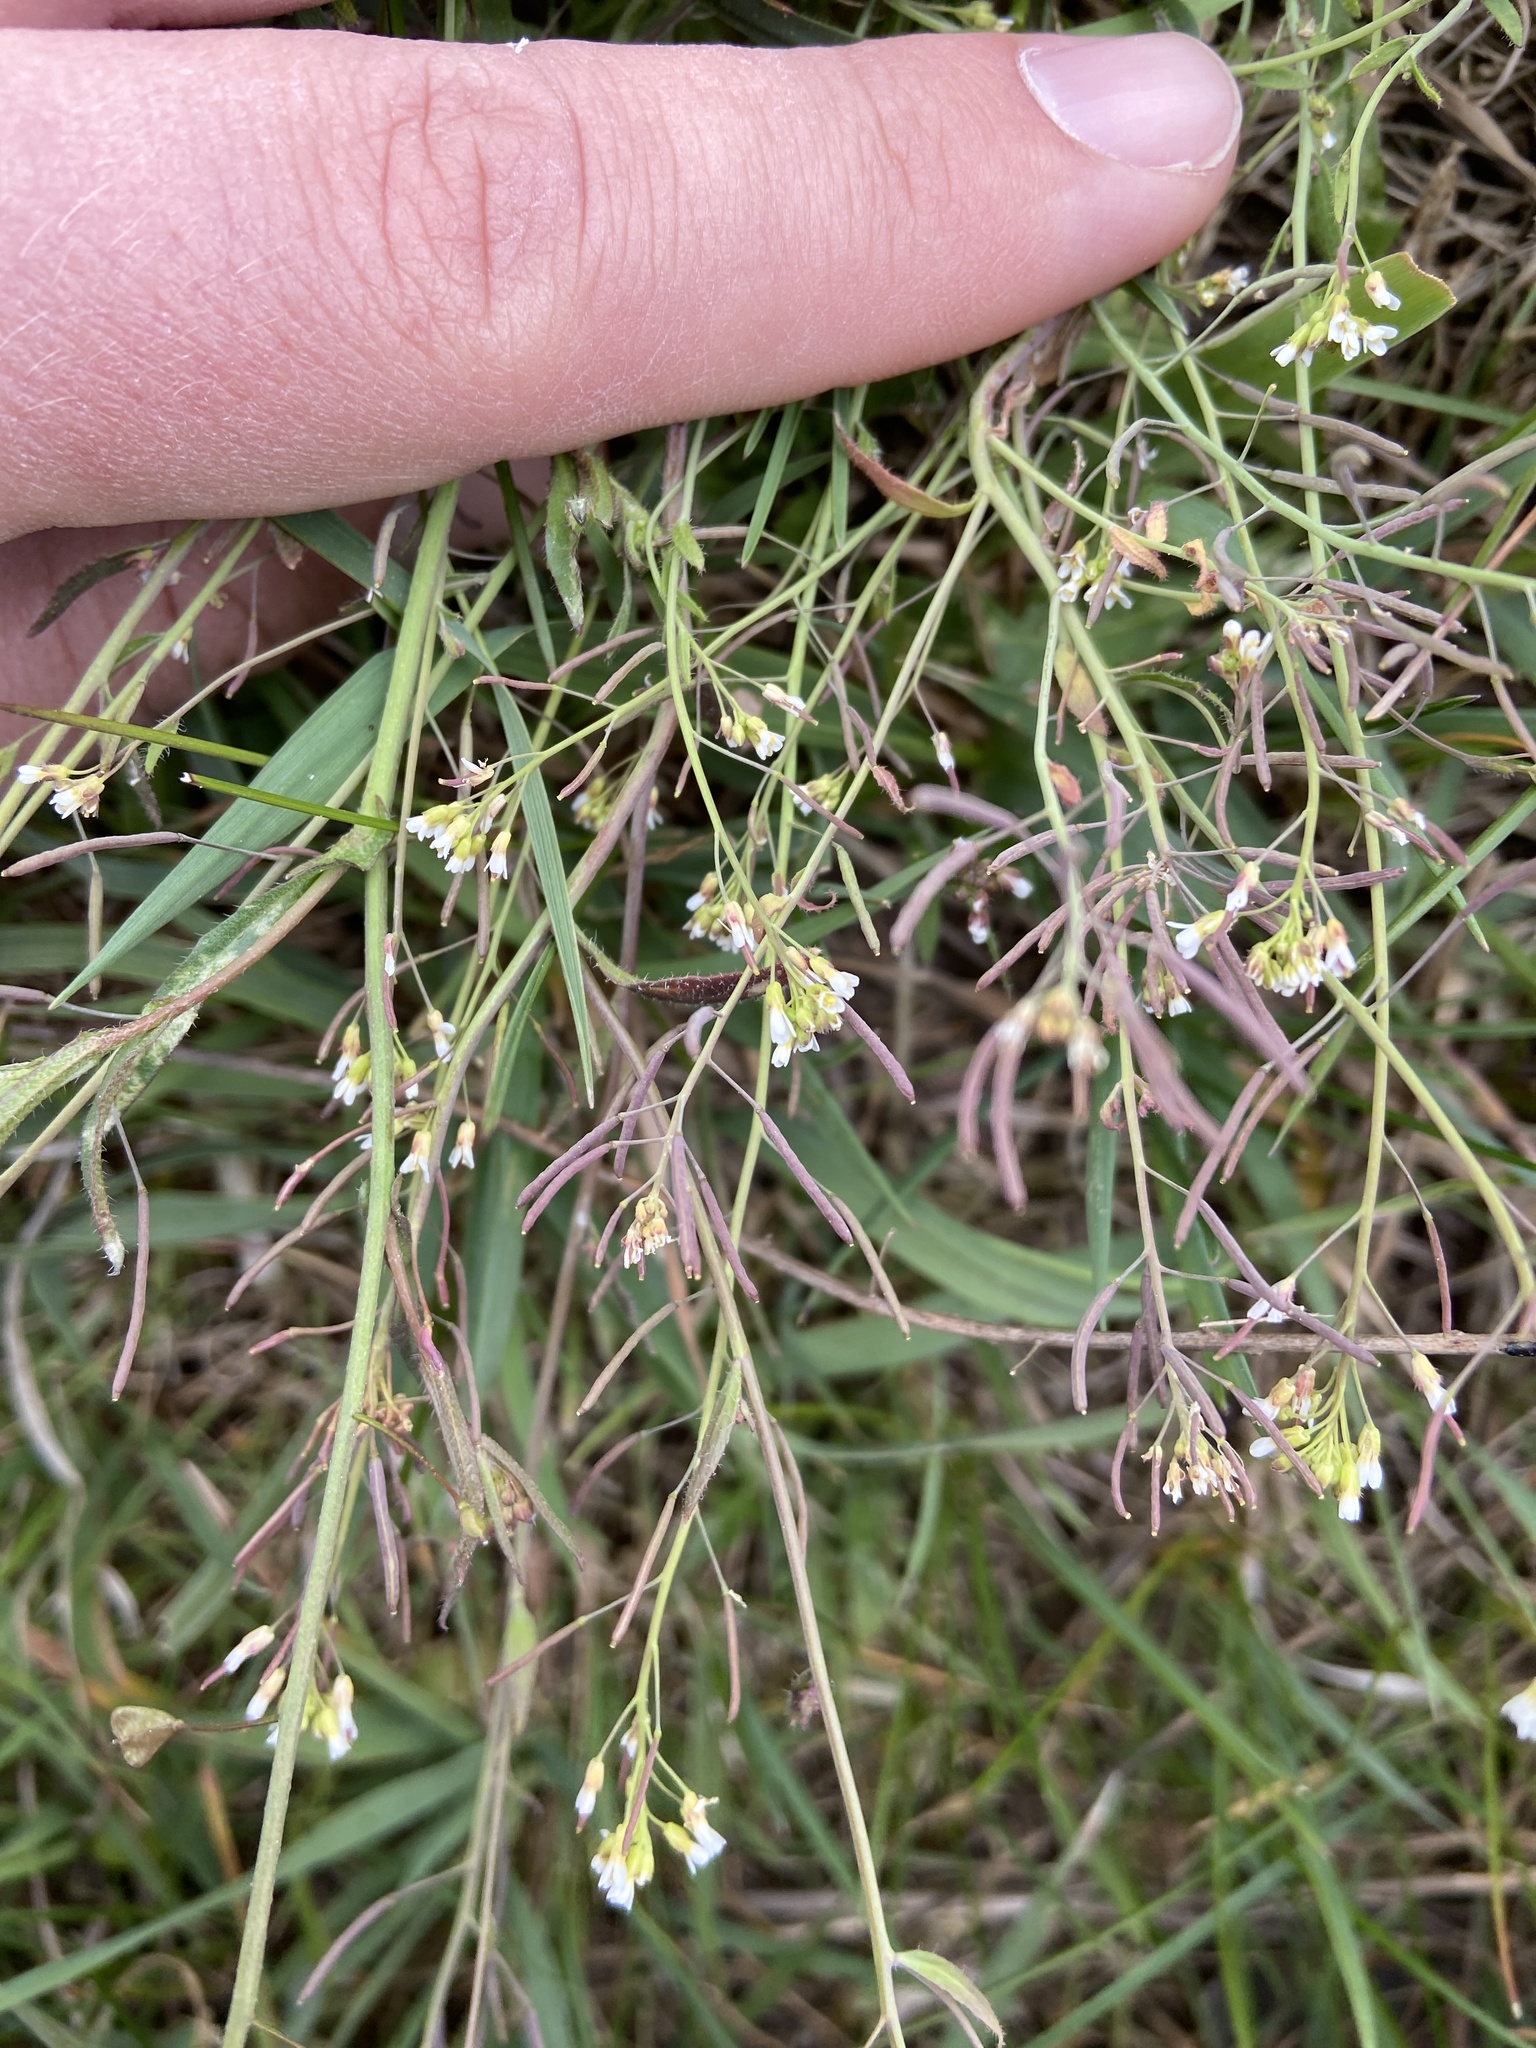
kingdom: Plantae
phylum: Tracheophyta
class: Magnoliopsida
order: Brassicales
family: Brassicaceae
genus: Arabidopsis
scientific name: Arabidopsis thaliana
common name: Thale cress
